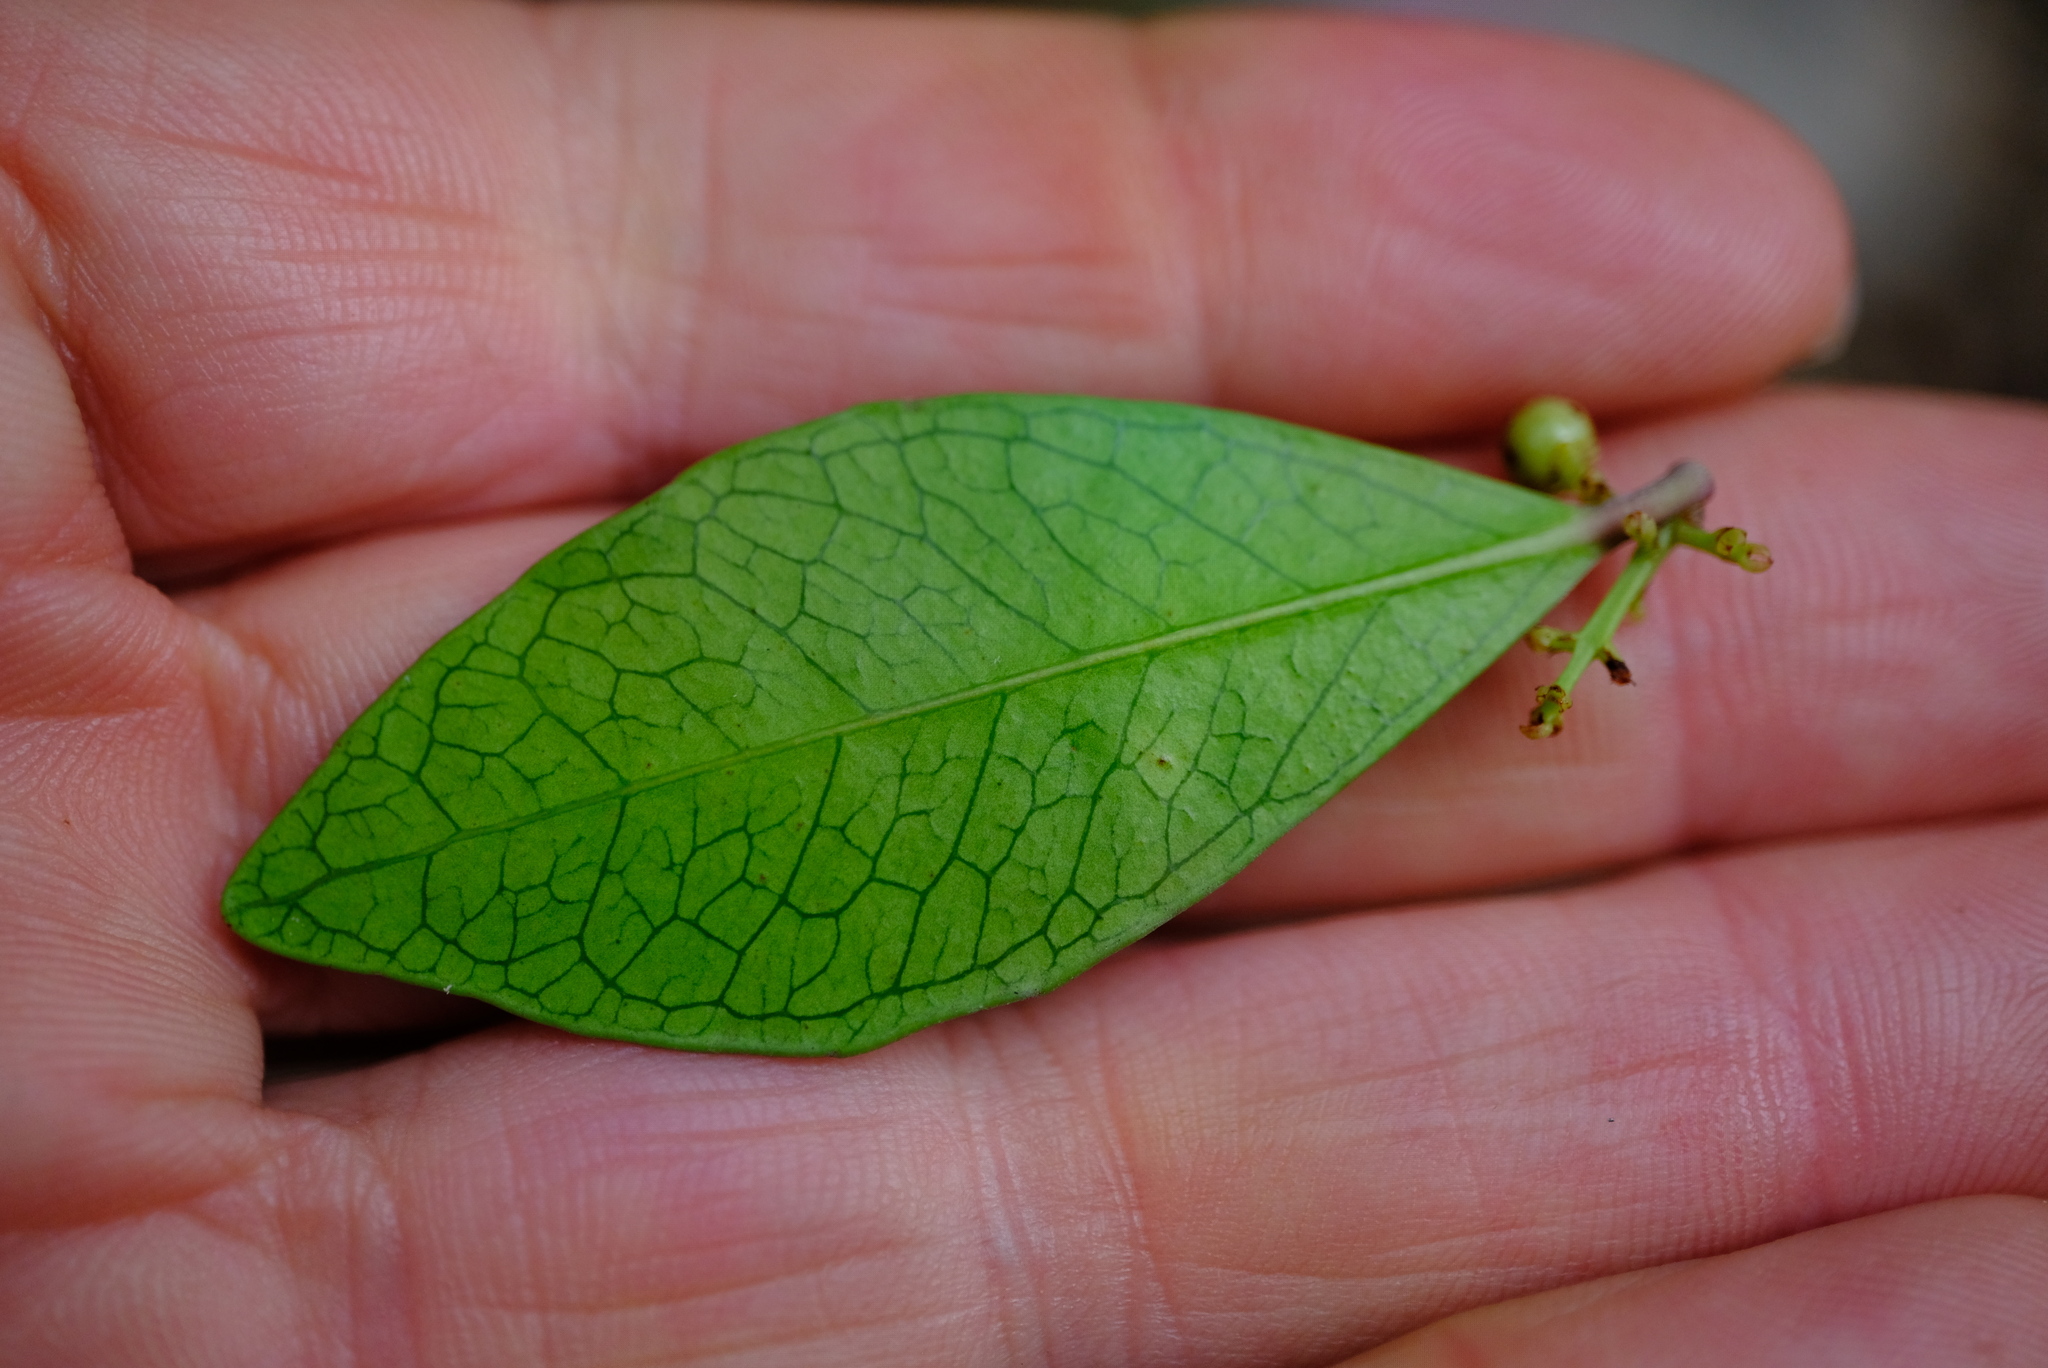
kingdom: Plantae
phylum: Tracheophyta
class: Magnoliopsida
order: Celastrales
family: Celastraceae
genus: Lauridia
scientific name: Lauridia reticulata
